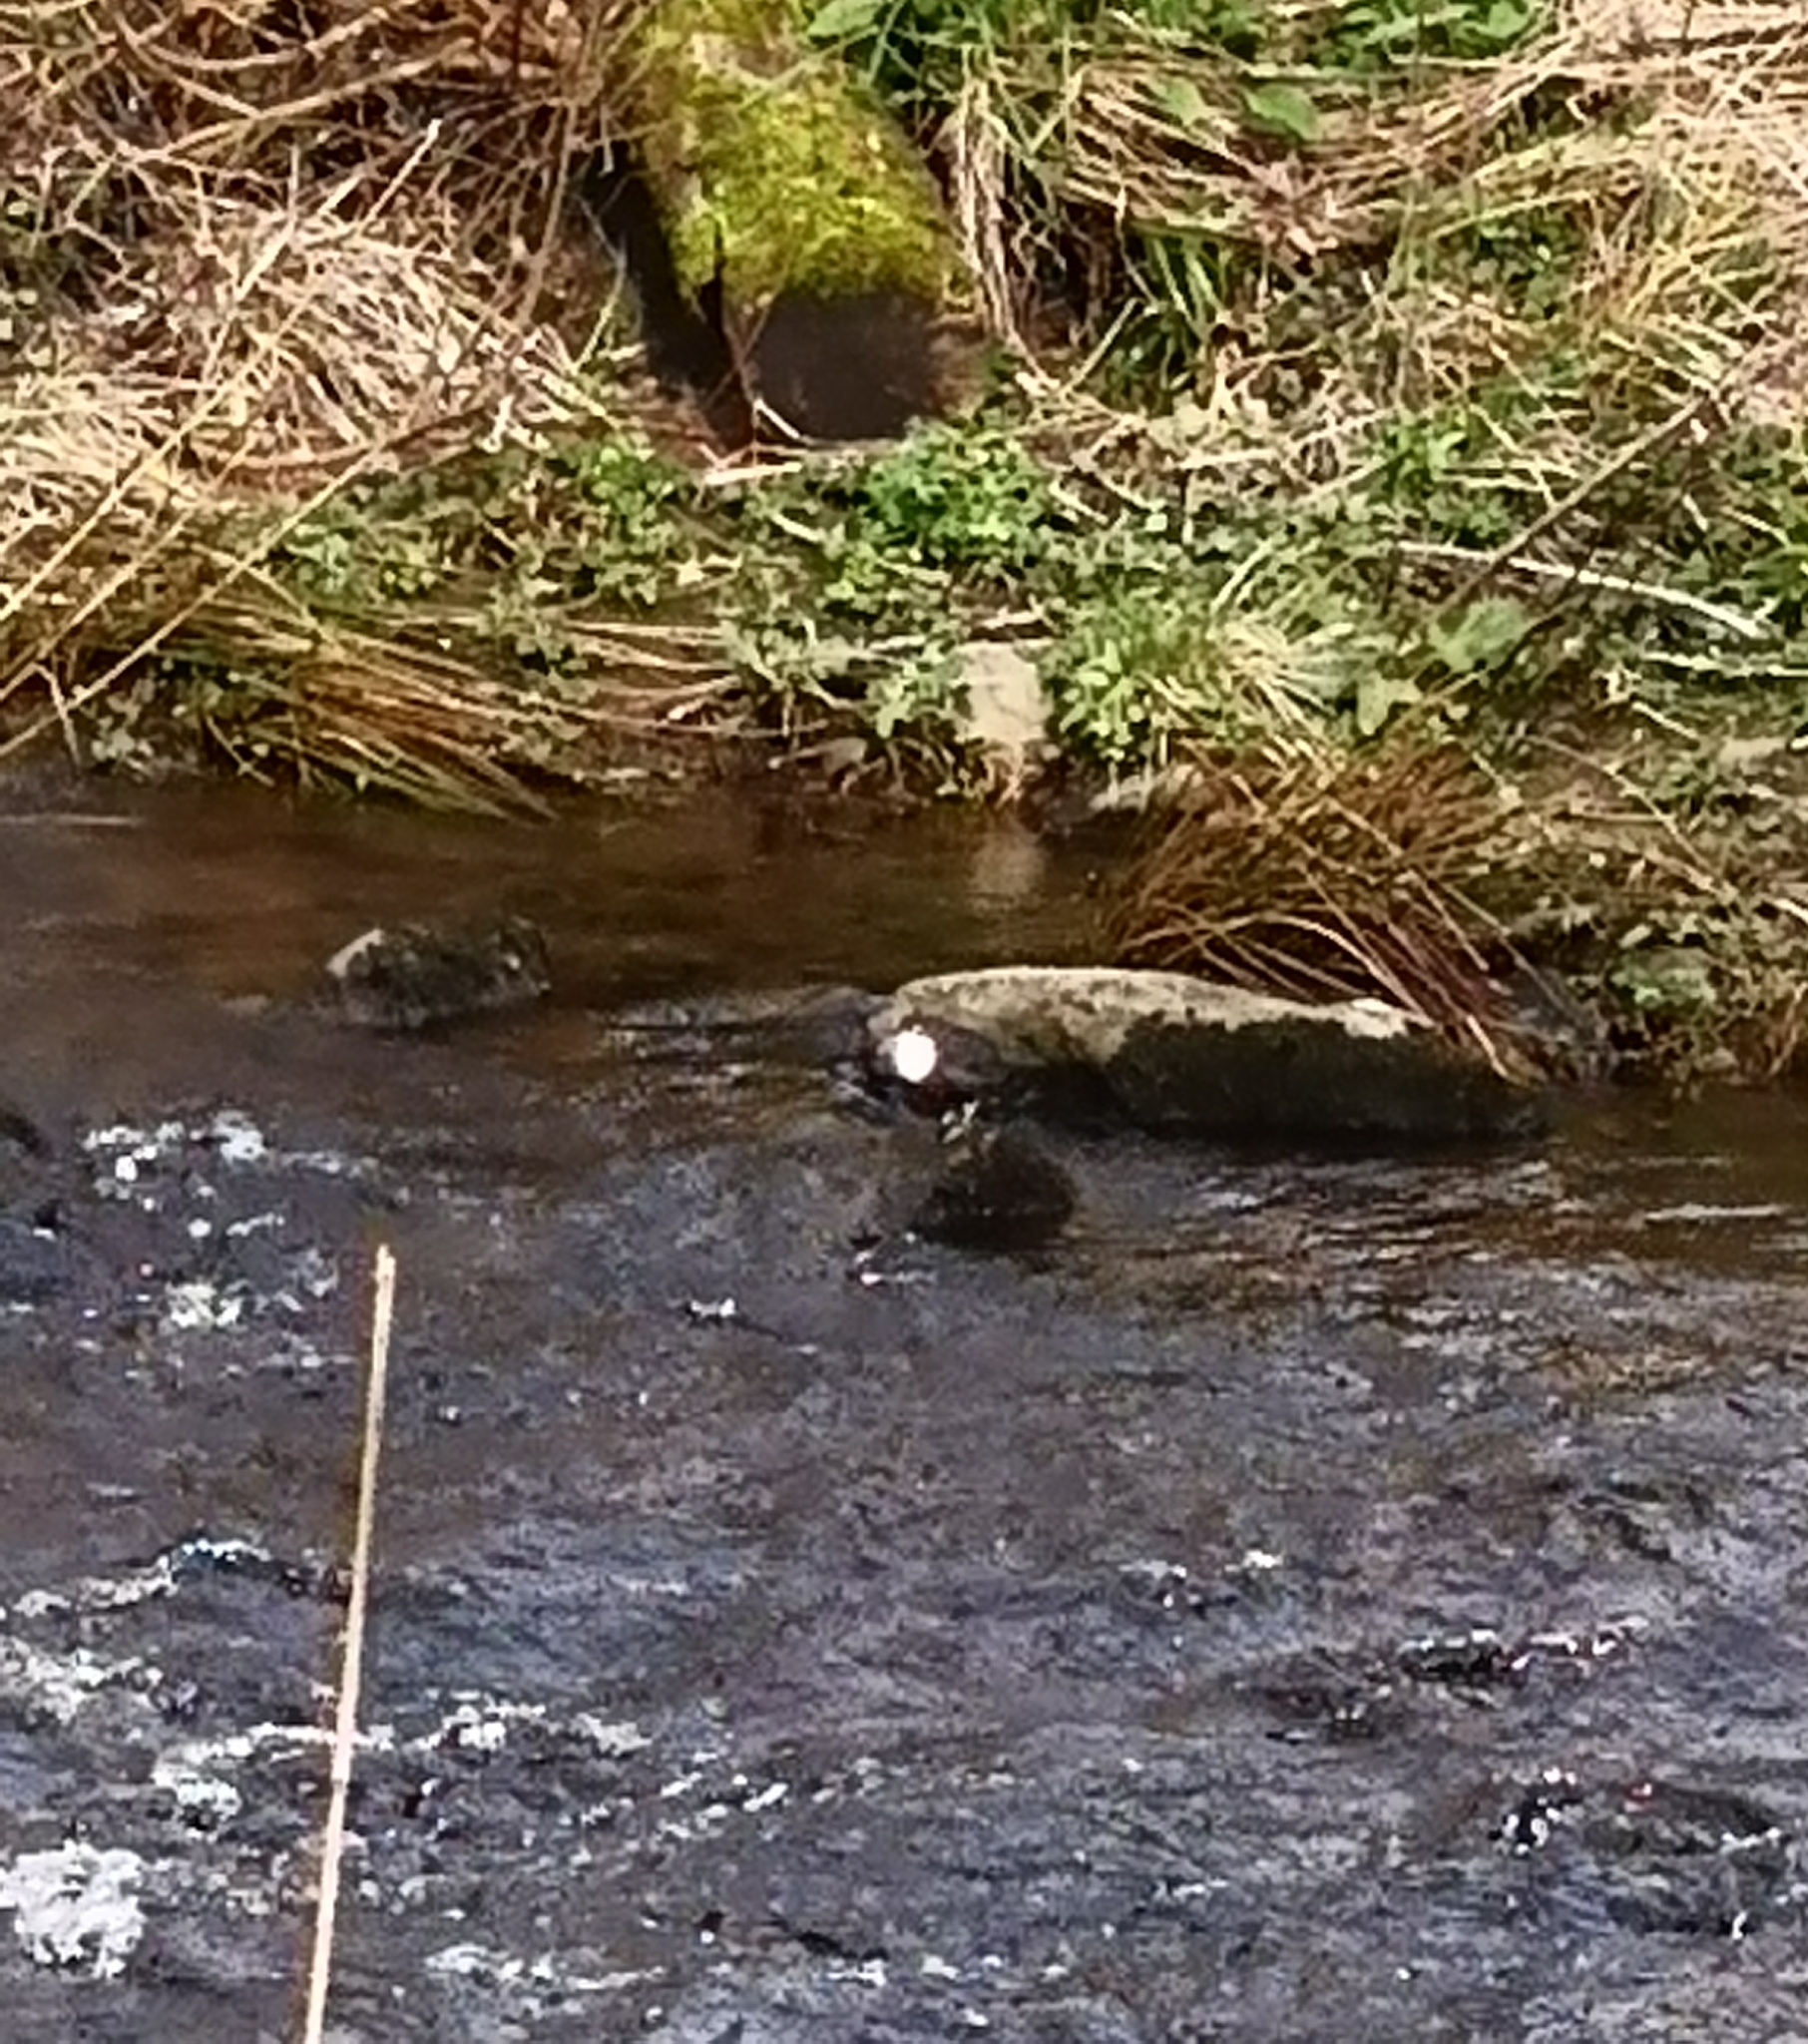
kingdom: Animalia
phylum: Chordata
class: Aves
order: Passeriformes
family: Cinclidae
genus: Cinclus
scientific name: Cinclus cinclus
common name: White-throated dipper
